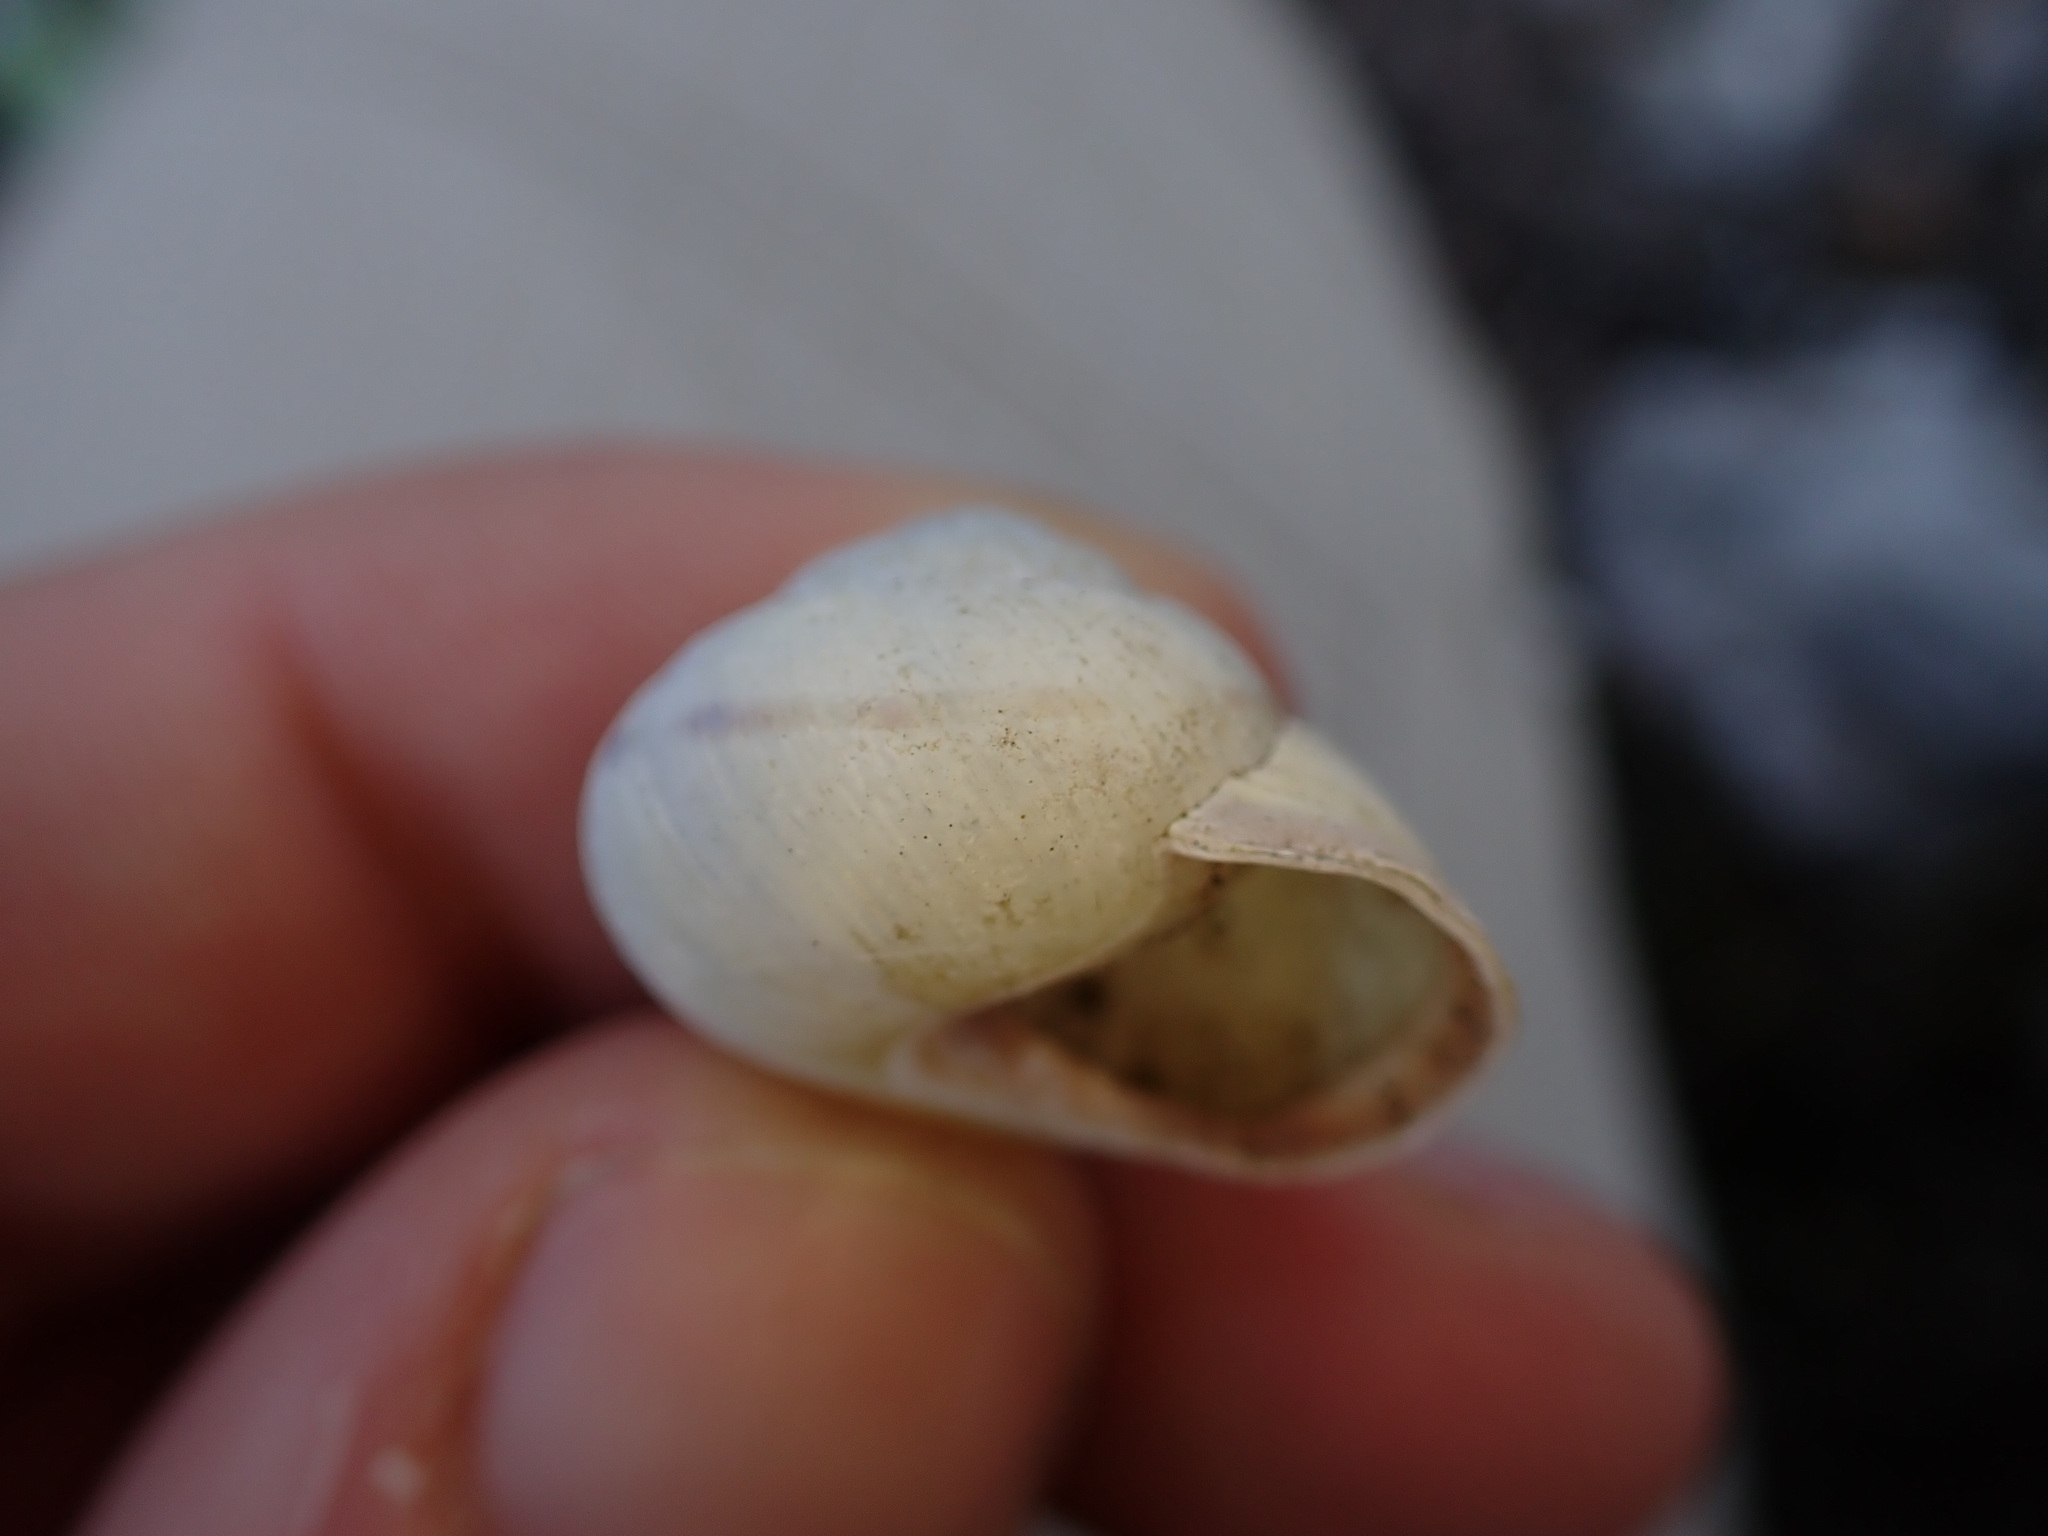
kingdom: Animalia
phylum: Mollusca
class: Gastropoda
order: Stylommatophora
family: Helicidae
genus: Cepaea
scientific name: Cepaea nemoralis
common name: Grovesnail
